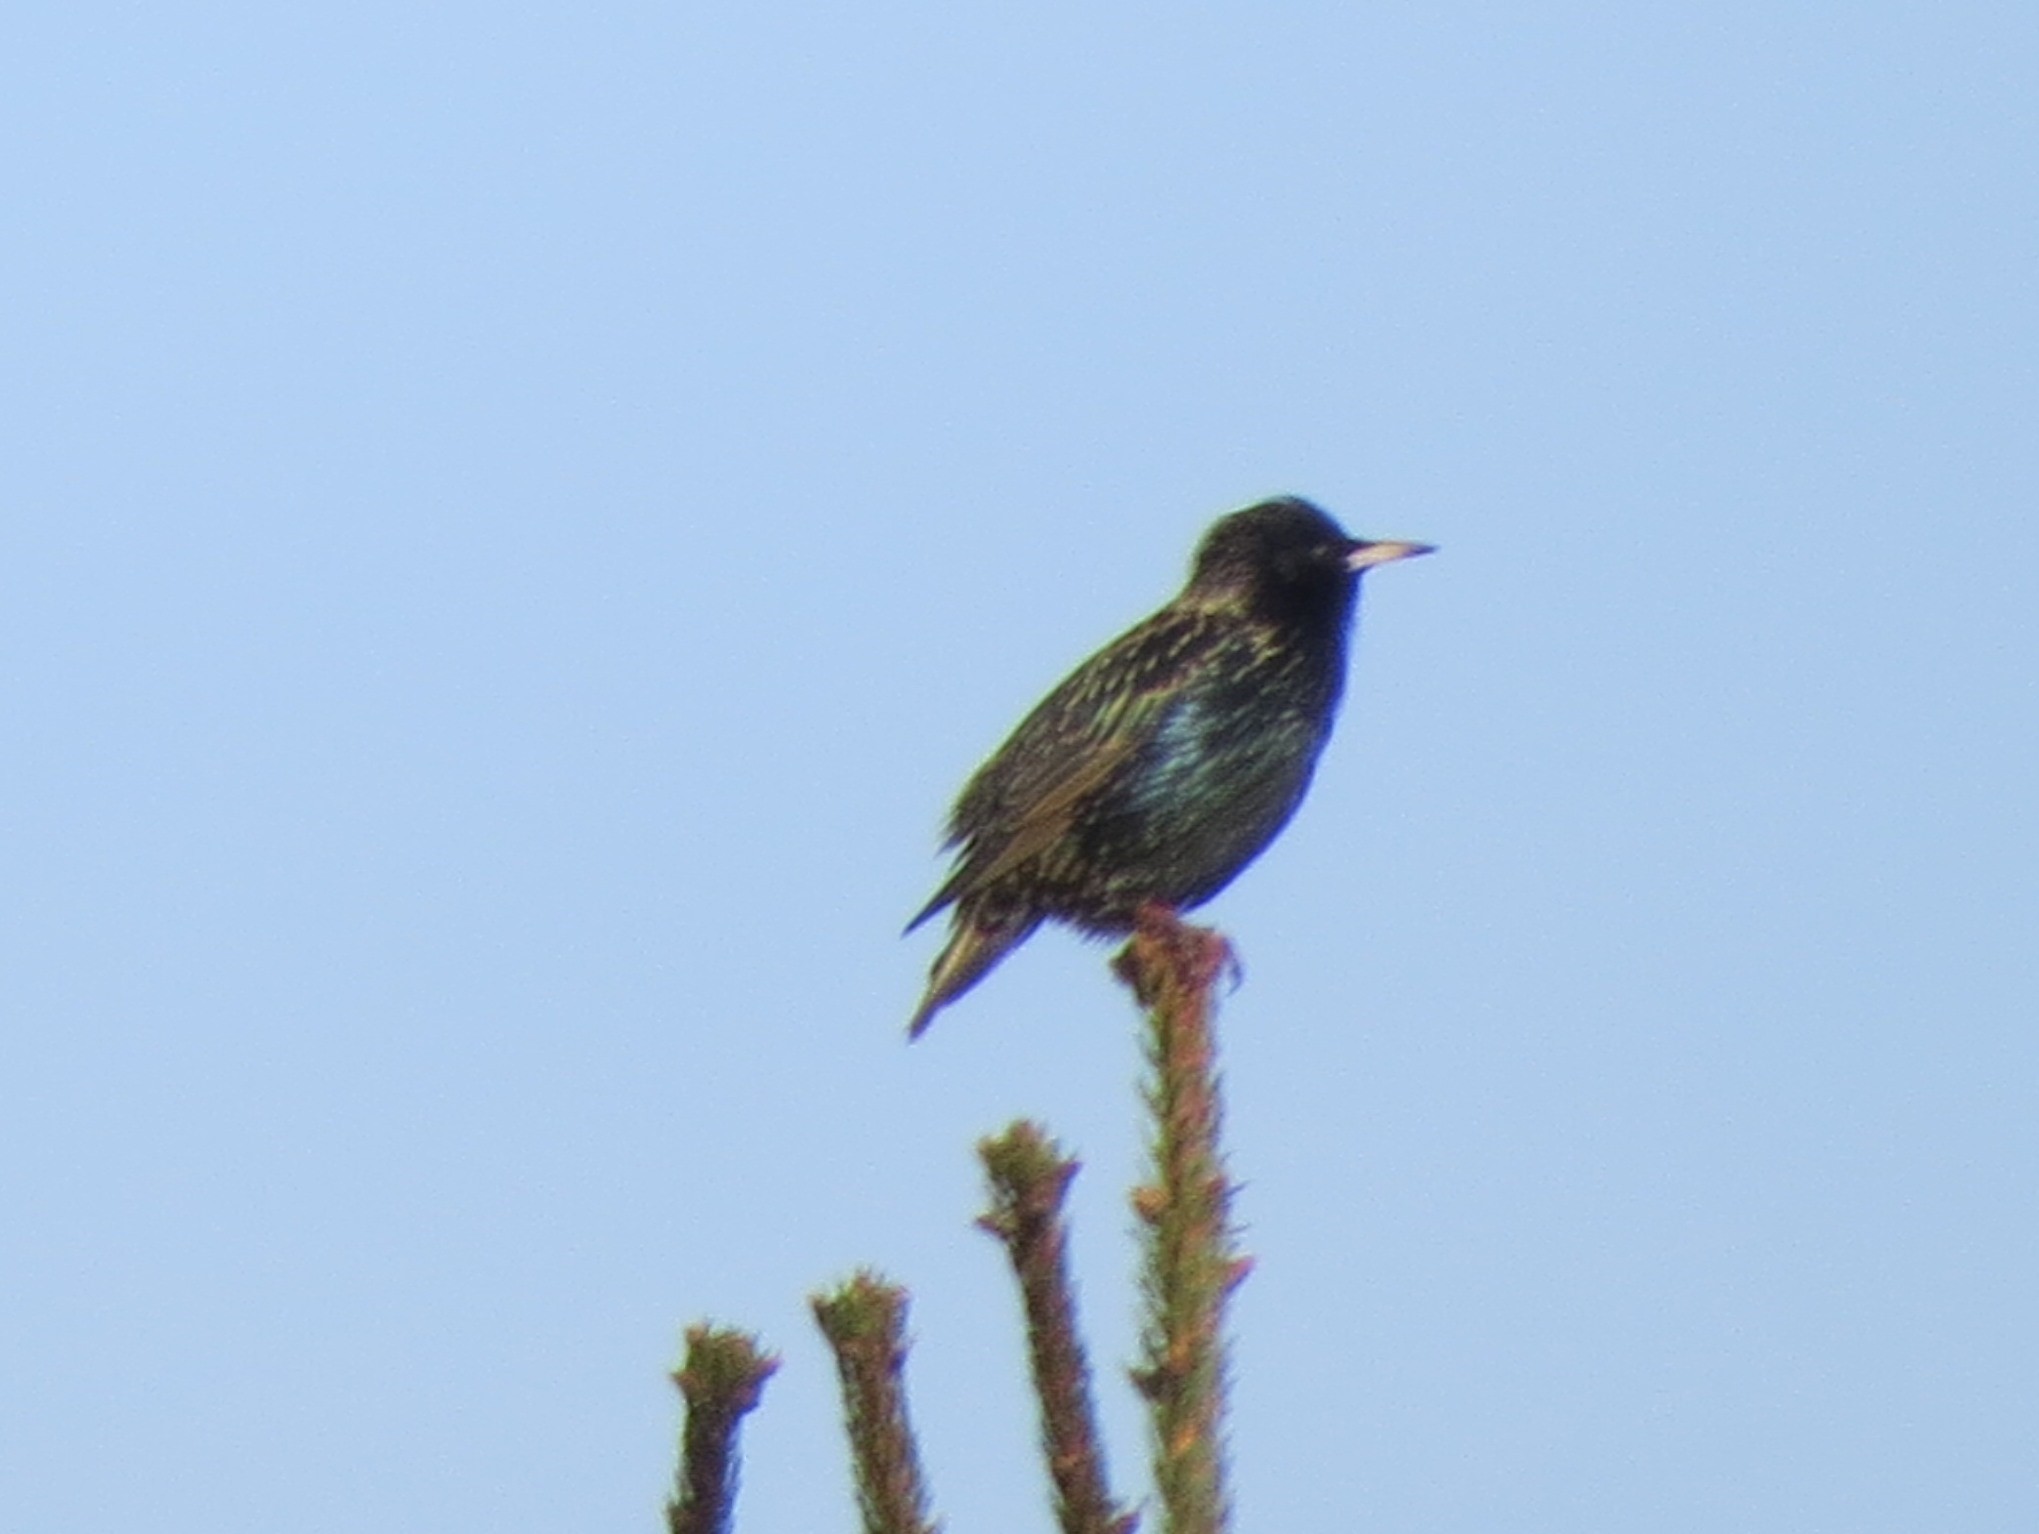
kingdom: Animalia
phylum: Chordata
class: Aves
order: Passeriformes
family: Sturnidae
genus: Sturnus
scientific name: Sturnus vulgaris
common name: Common starling
